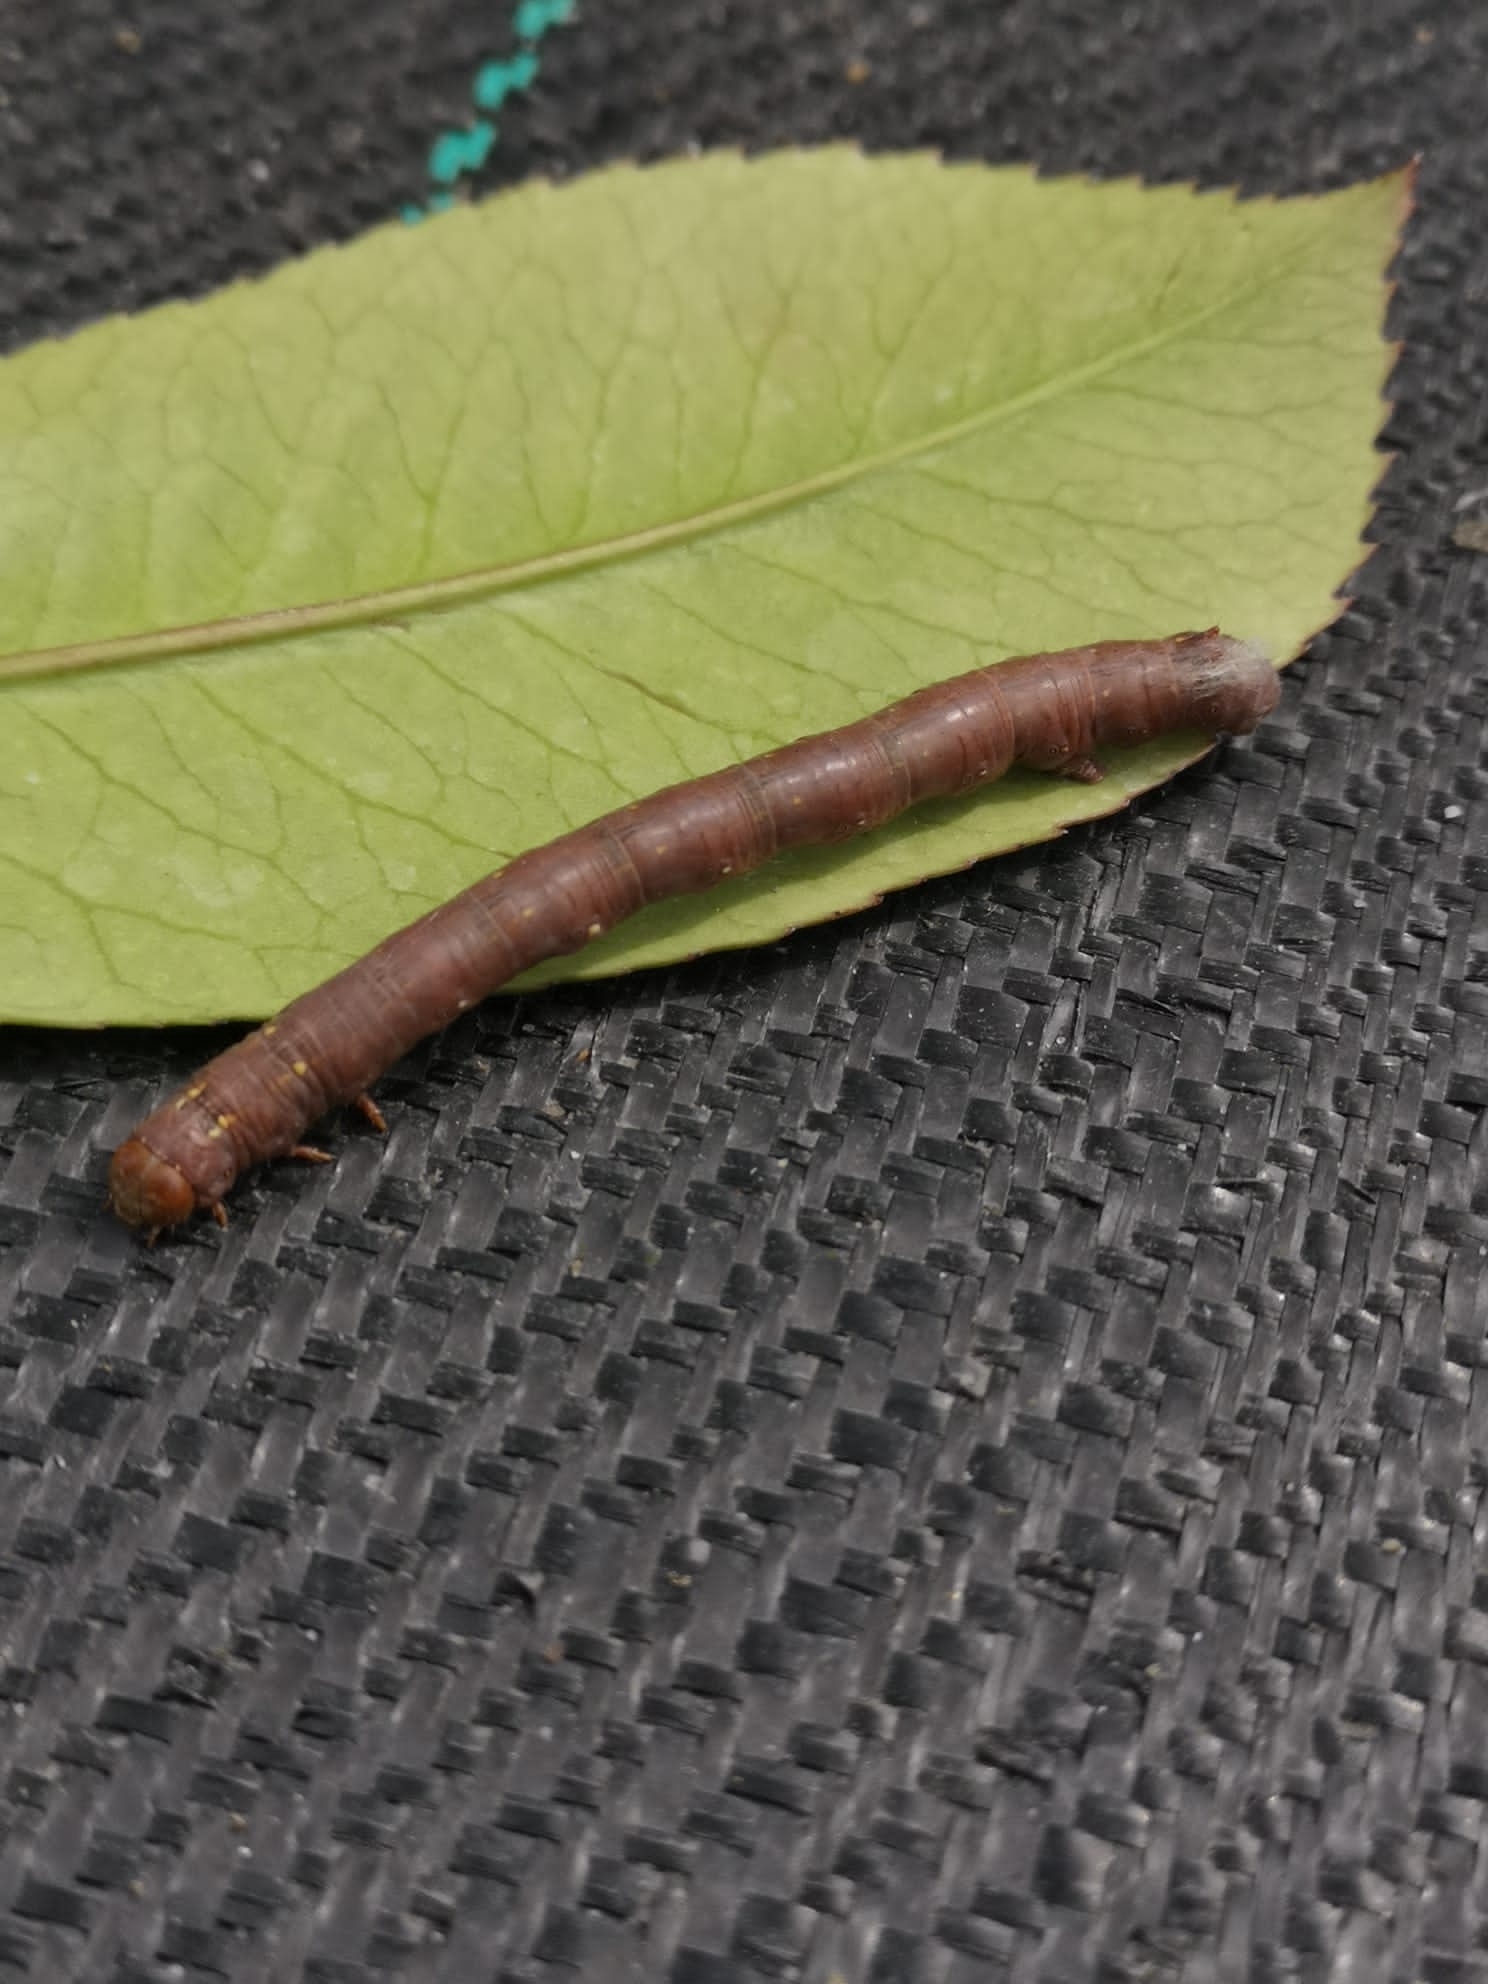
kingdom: Animalia
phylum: Arthropoda
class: Insecta
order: Lepidoptera
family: Geometridae
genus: Colotois
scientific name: Colotois pennaria
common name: Feathered thorn
